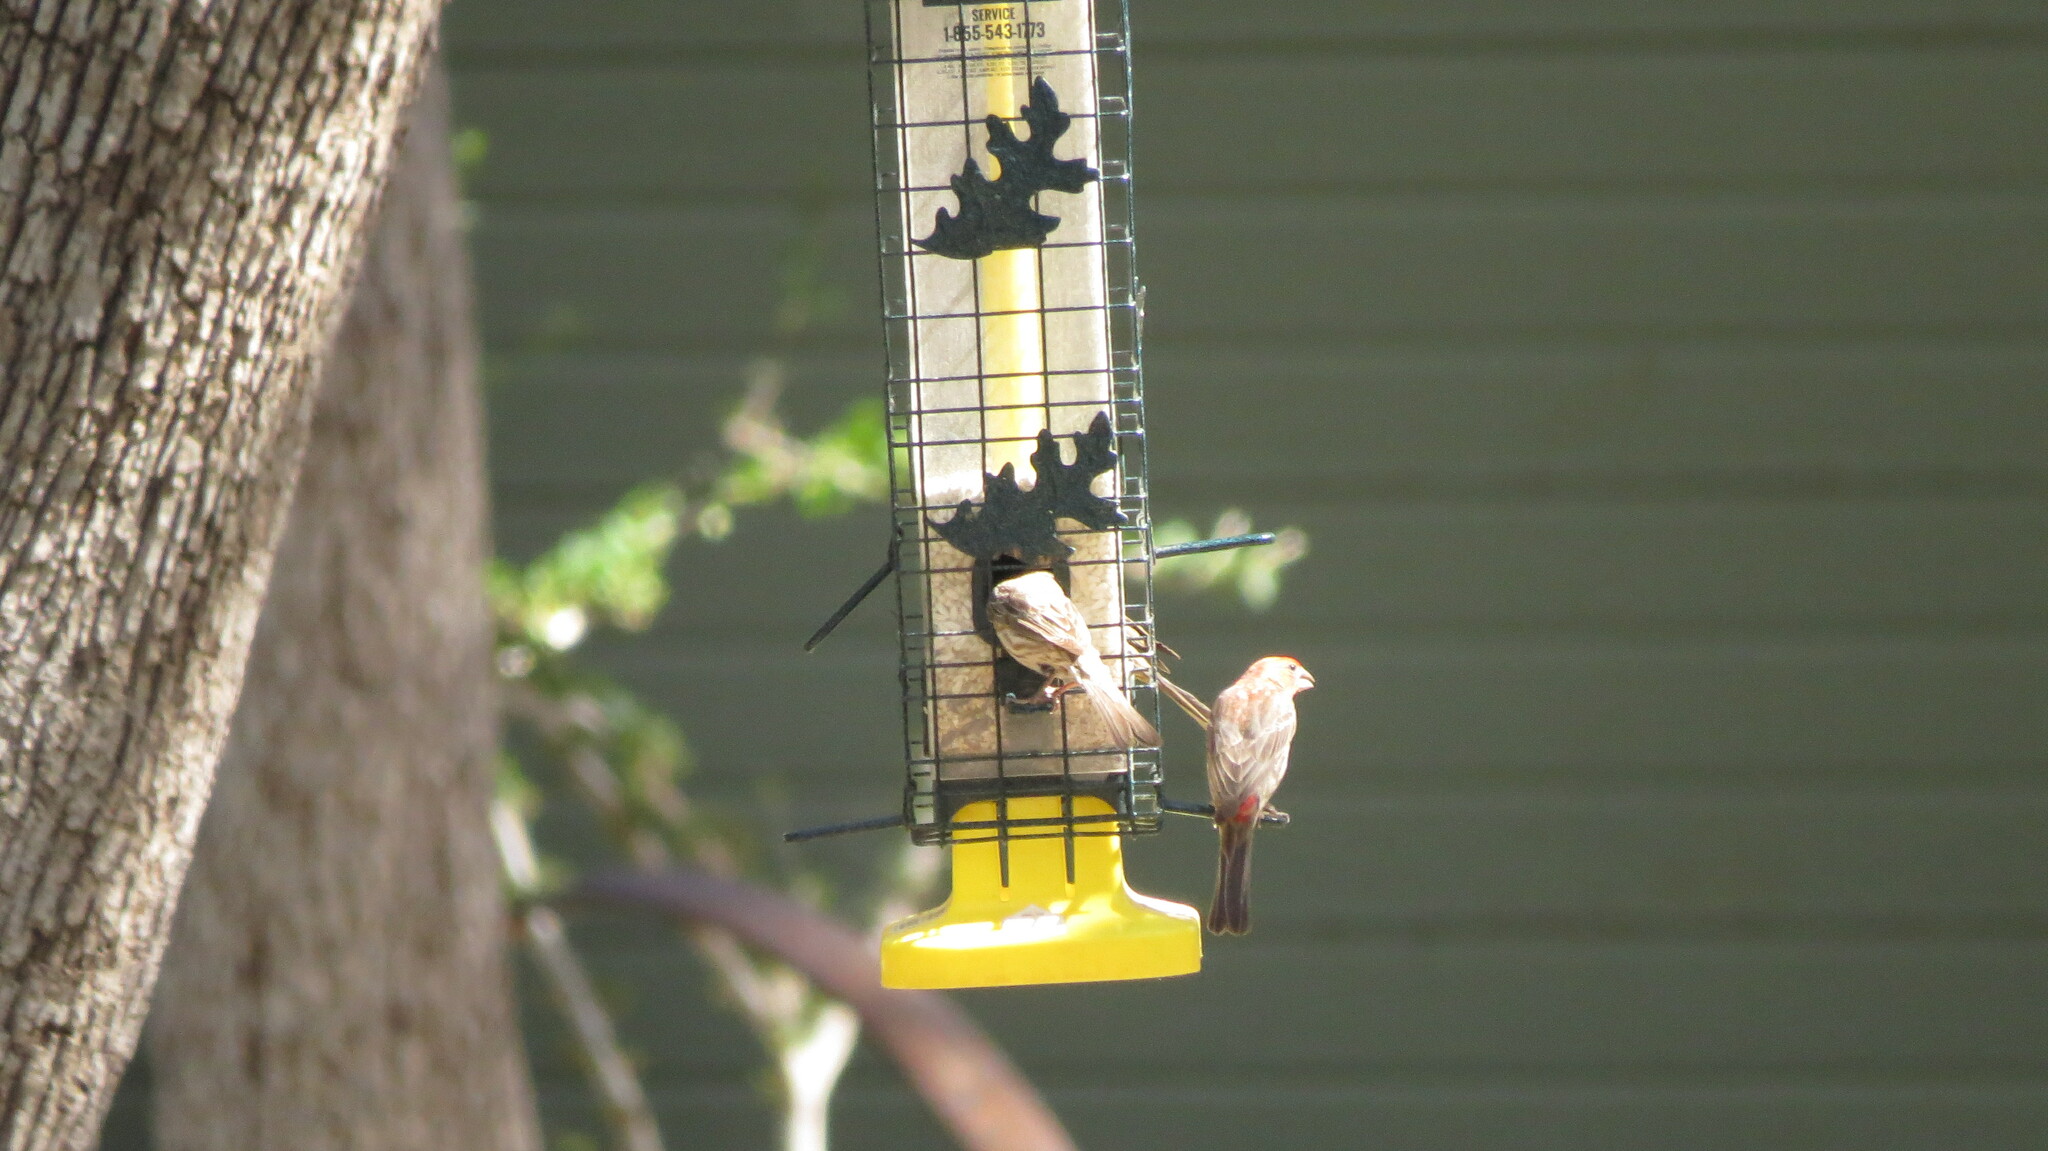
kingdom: Animalia
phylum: Chordata
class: Aves
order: Passeriformes
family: Fringillidae
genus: Haemorhous
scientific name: Haemorhous mexicanus
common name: House finch
